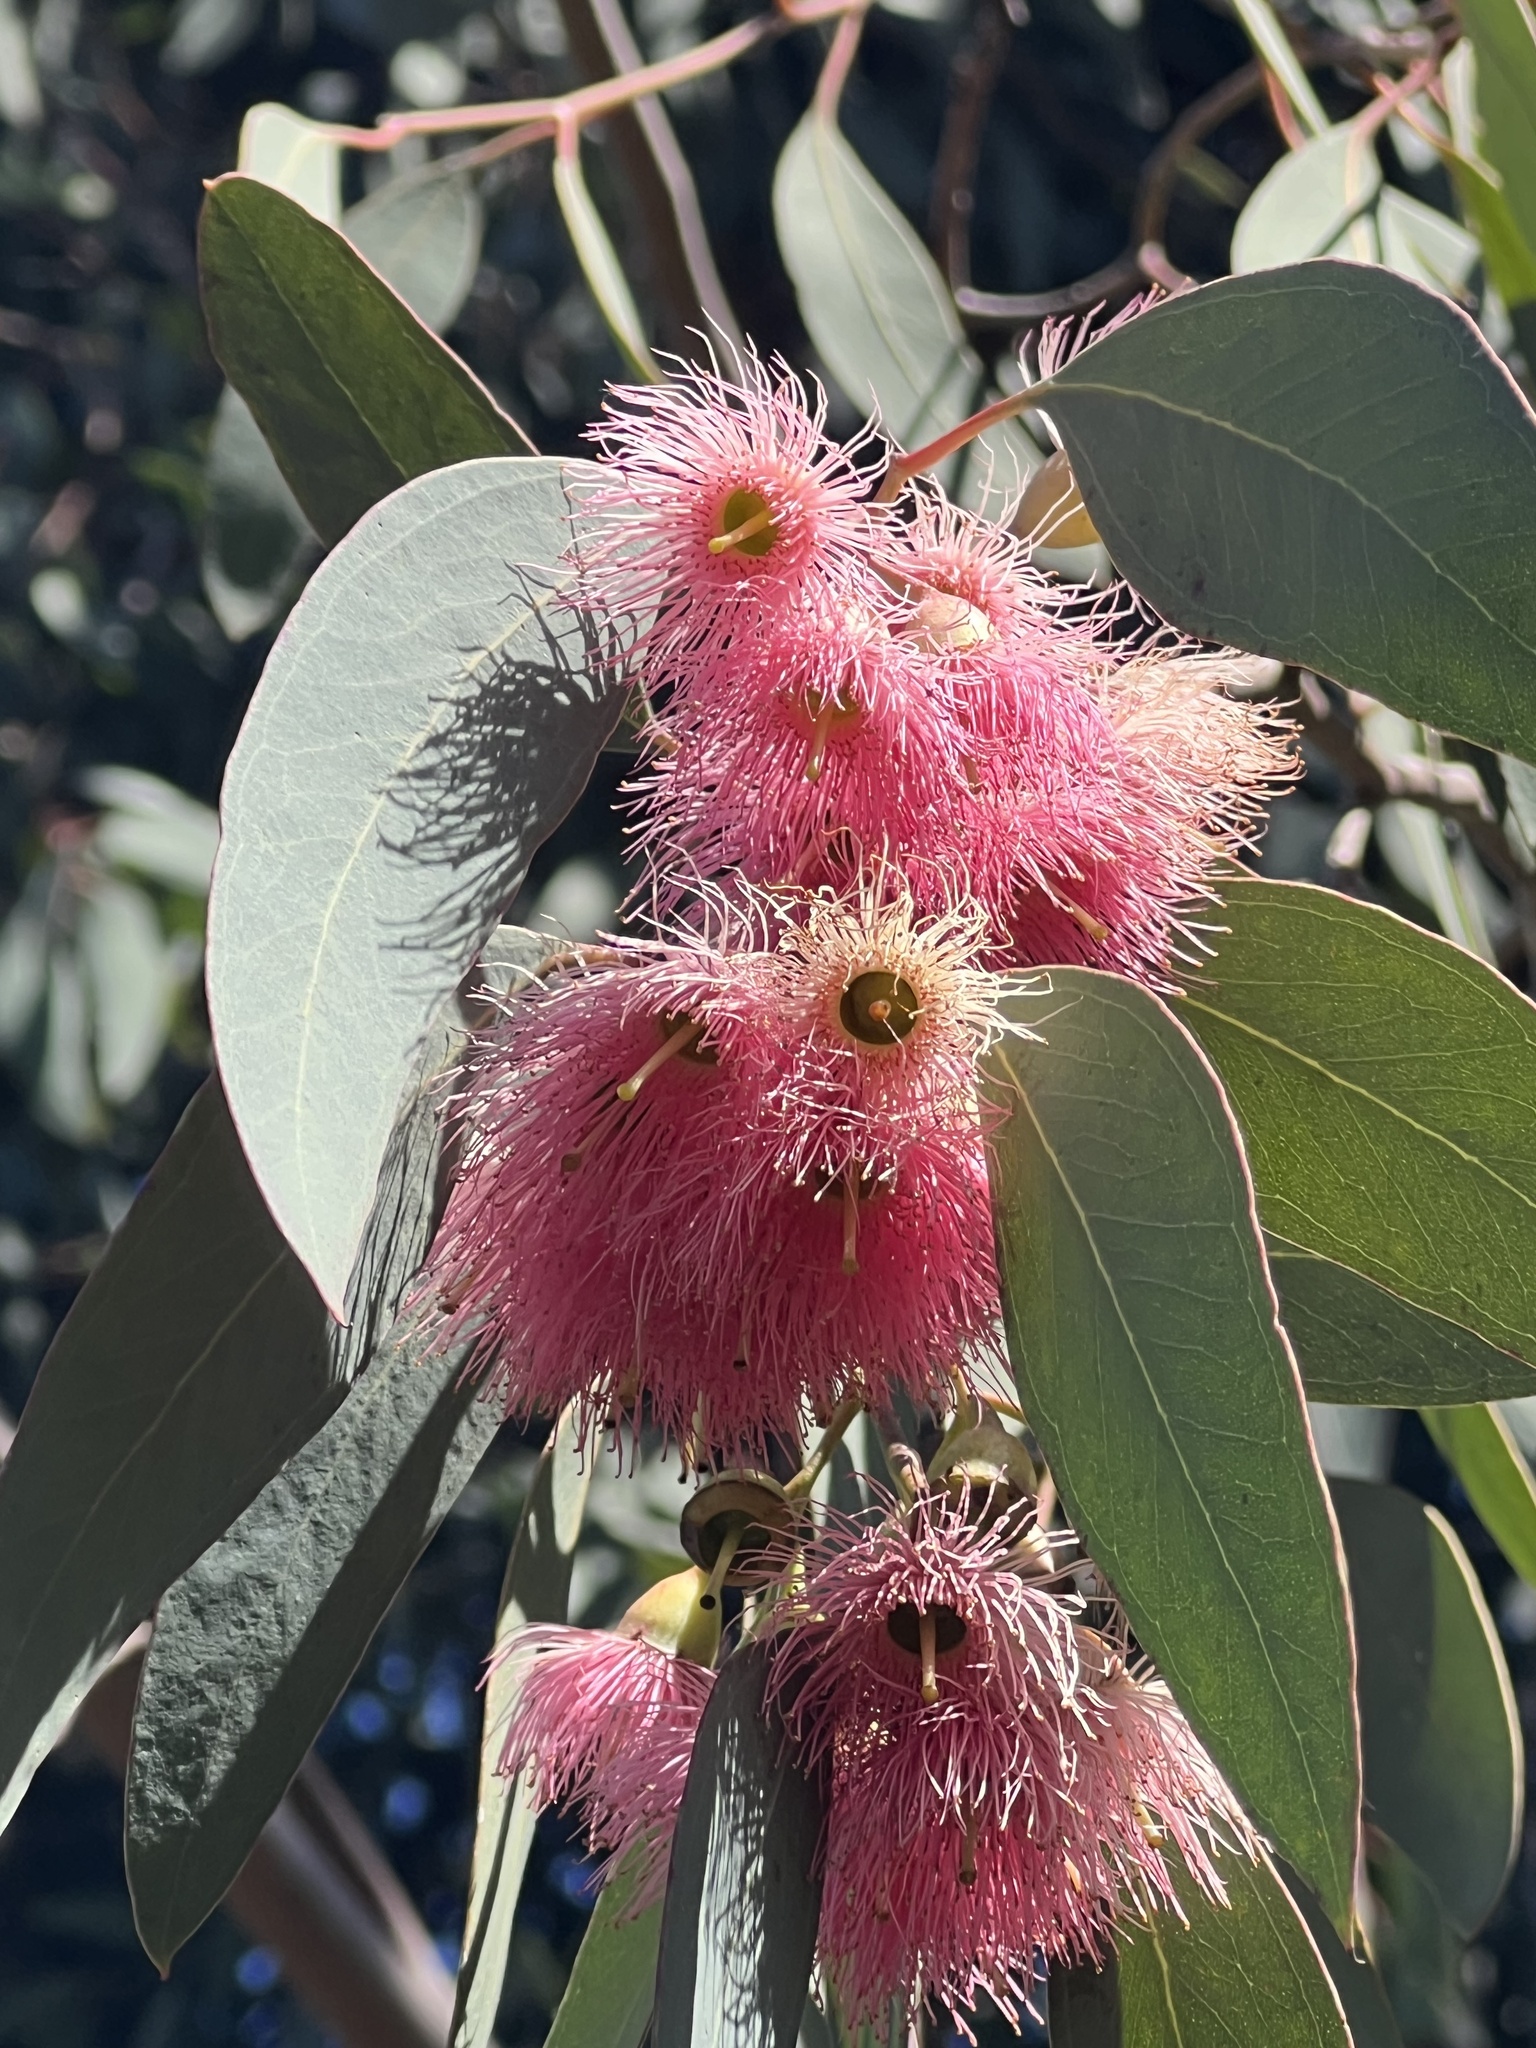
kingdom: Plantae
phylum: Tracheophyta
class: Magnoliopsida
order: Myrtales
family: Myrtaceae
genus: Eucalyptus
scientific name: Eucalyptus sideroxylon
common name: Red ironbark
